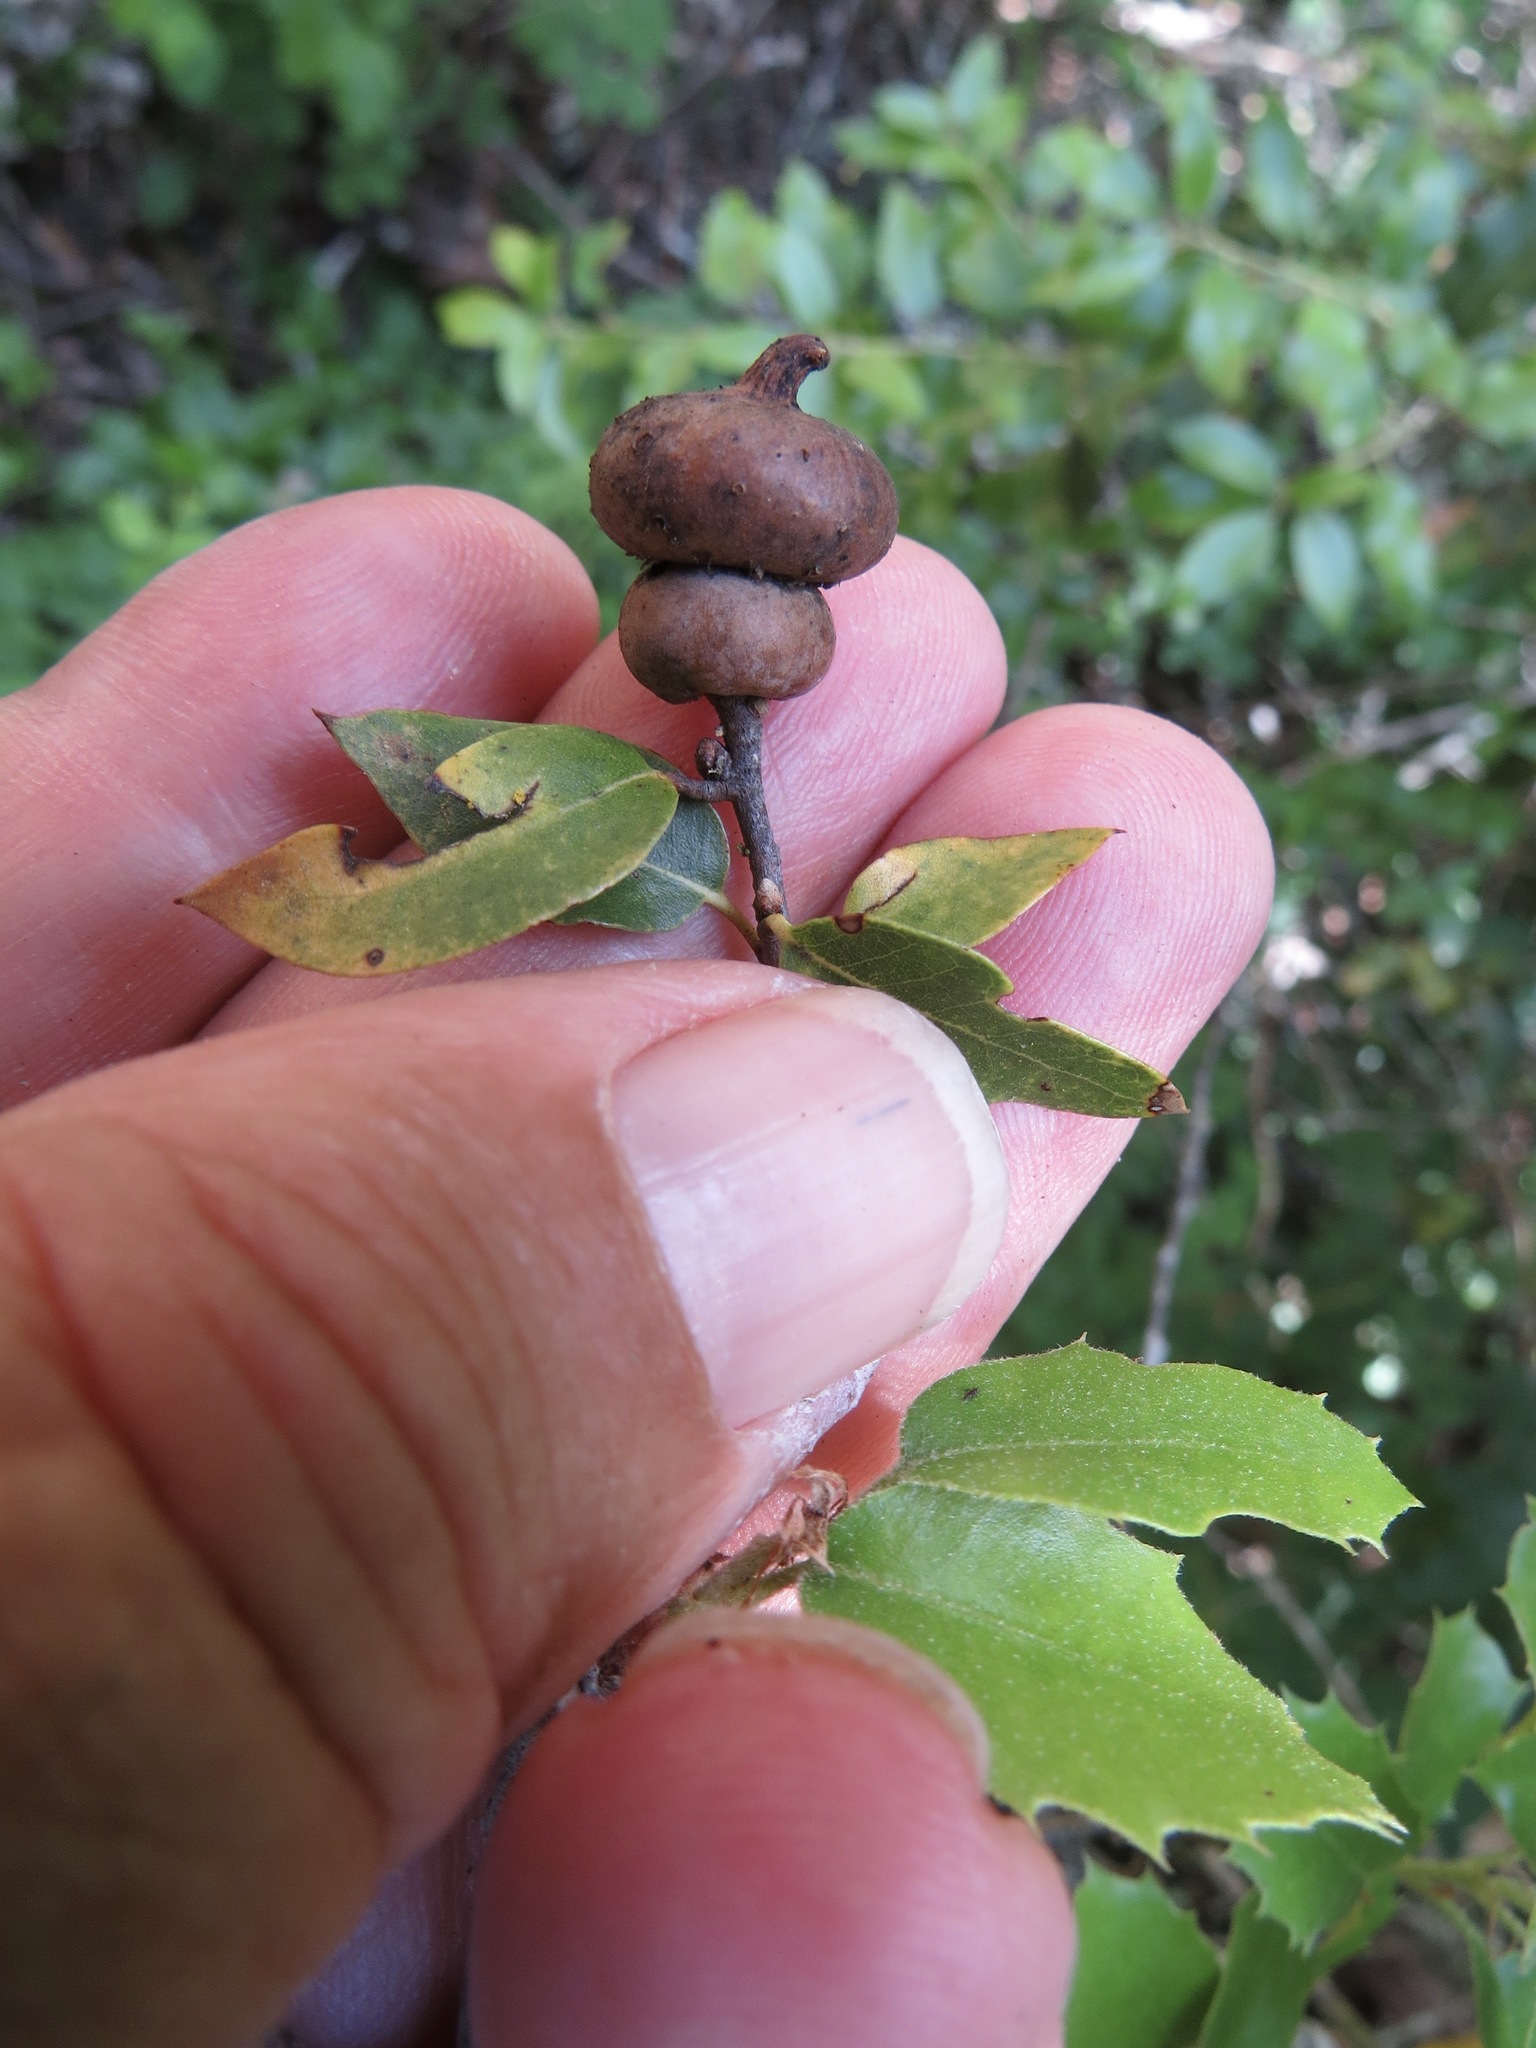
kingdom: Animalia
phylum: Arthropoda
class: Insecta
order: Hymenoptera
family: Cynipidae
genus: Heteroecus
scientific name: Heteroecus
